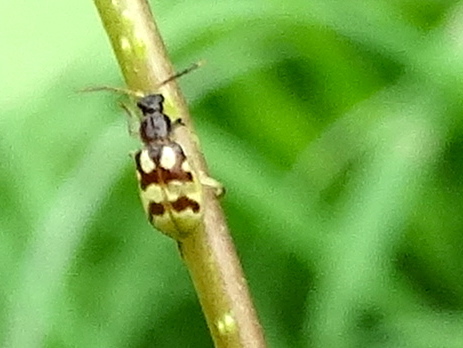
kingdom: Animalia
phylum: Arthropoda
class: Insecta
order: Coleoptera
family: Chrysomelidae
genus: Diabrotica
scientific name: Diabrotica
